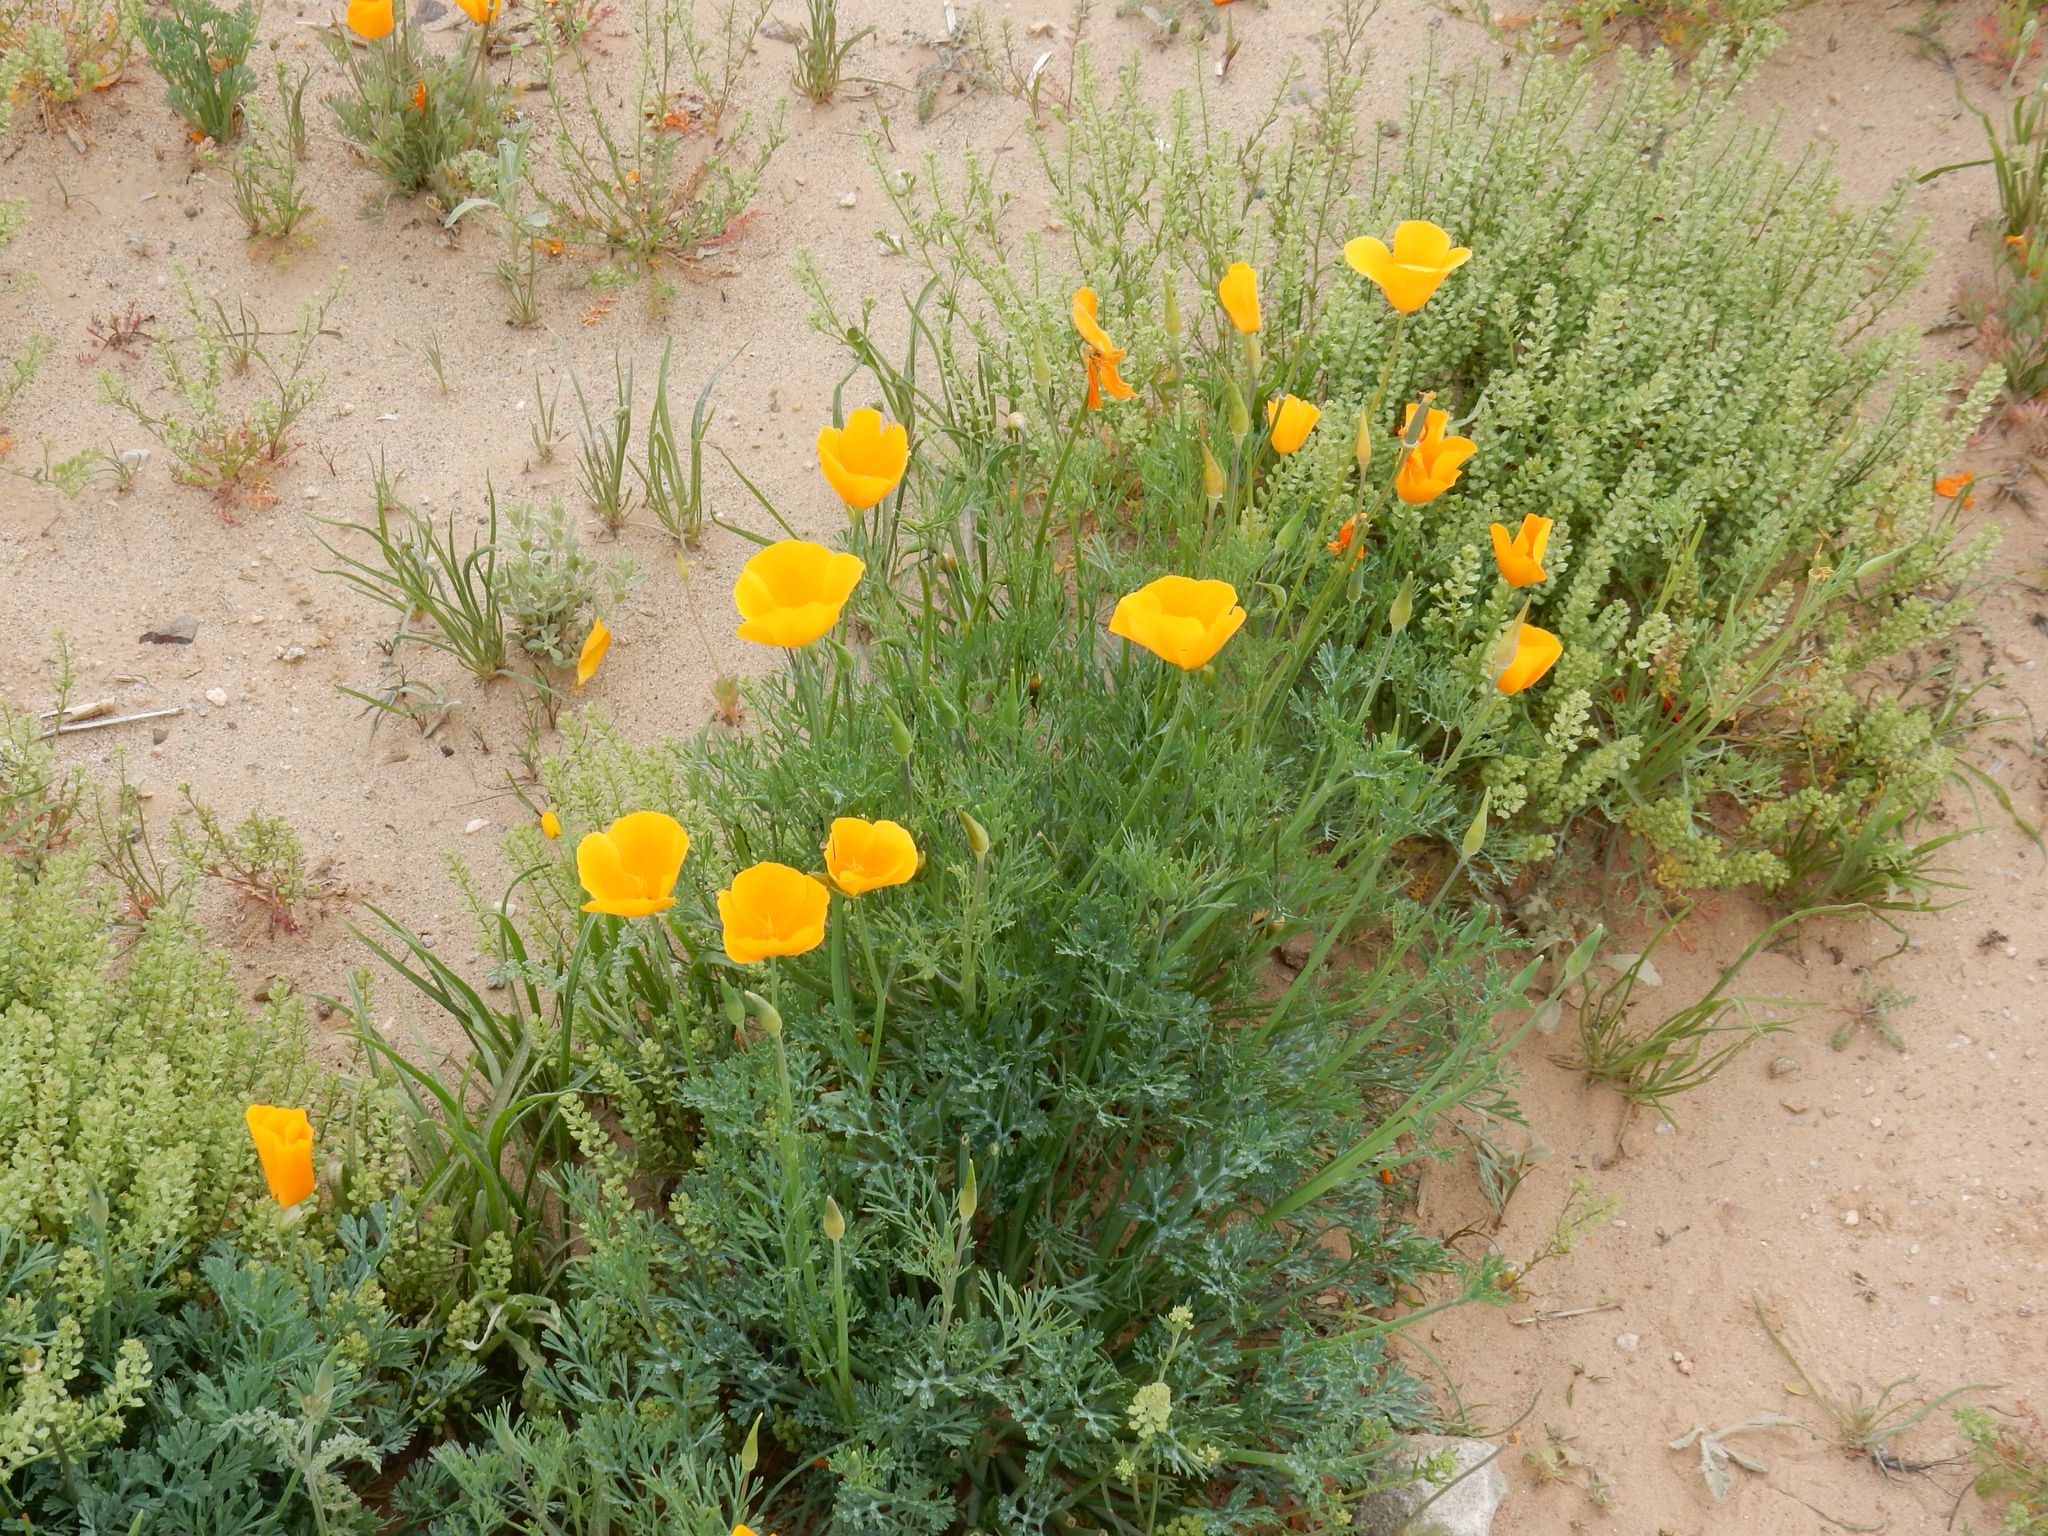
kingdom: Plantae
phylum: Tracheophyta
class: Magnoliopsida
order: Ranunculales
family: Papaveraceae
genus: Eschscholzia
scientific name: Eschscholzia californica
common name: California poppy
